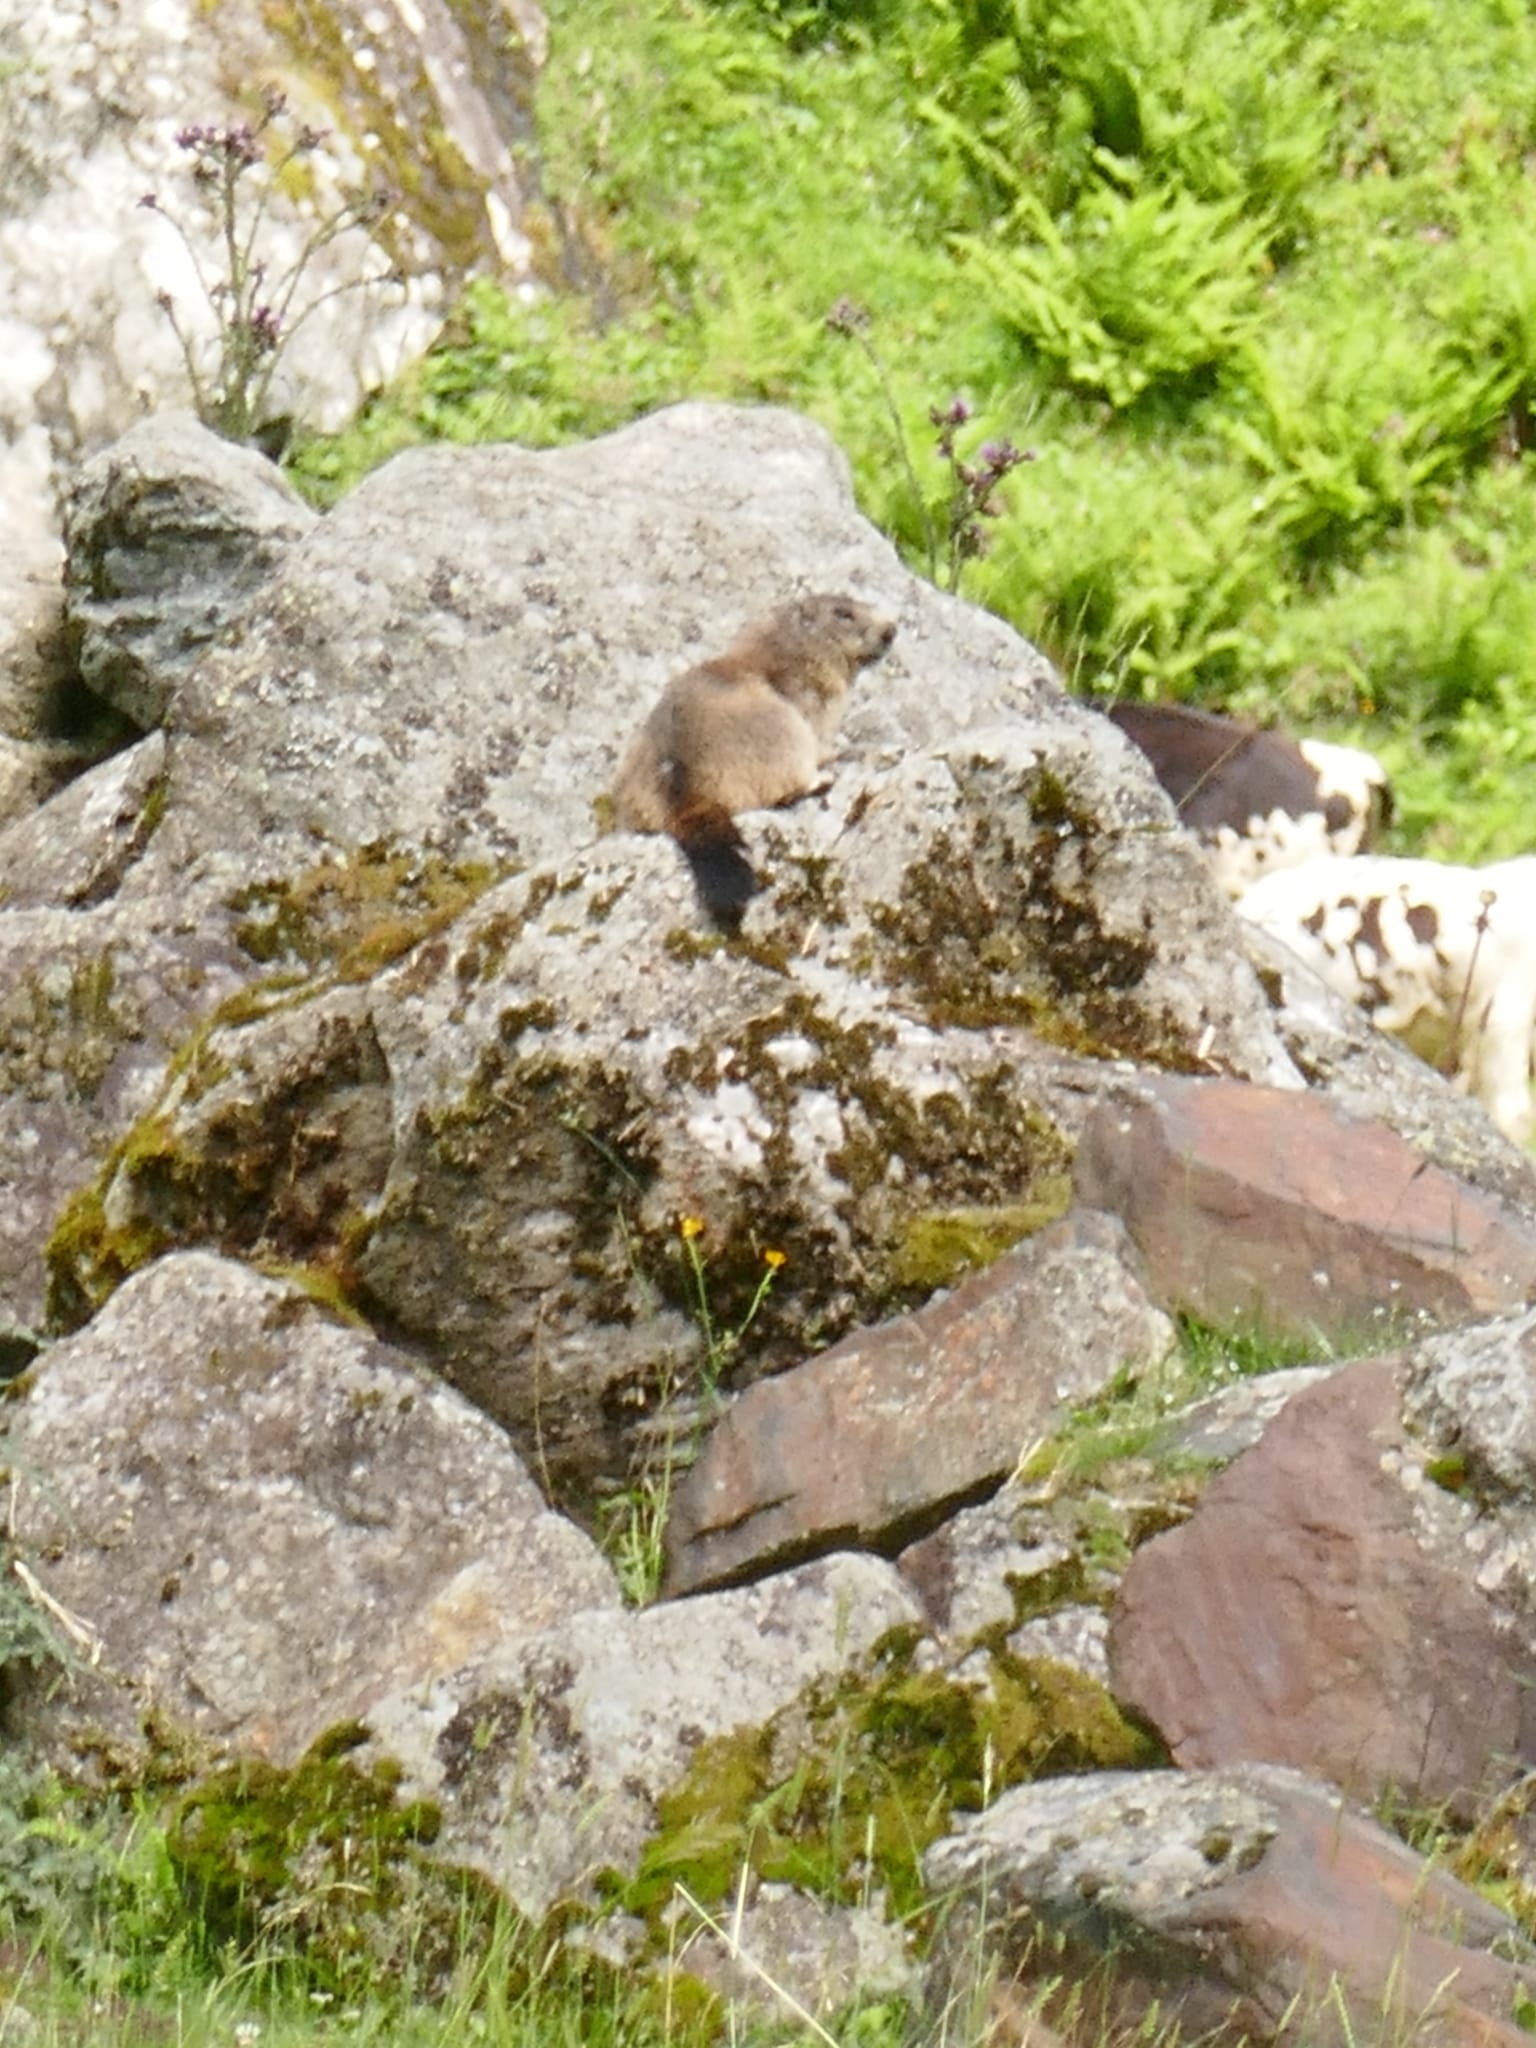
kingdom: Animalia
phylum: Chordata
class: Mammalia
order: Rodentia
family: Sciuridae
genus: Marmota
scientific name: Marmota marmota
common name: Alpine marmot
